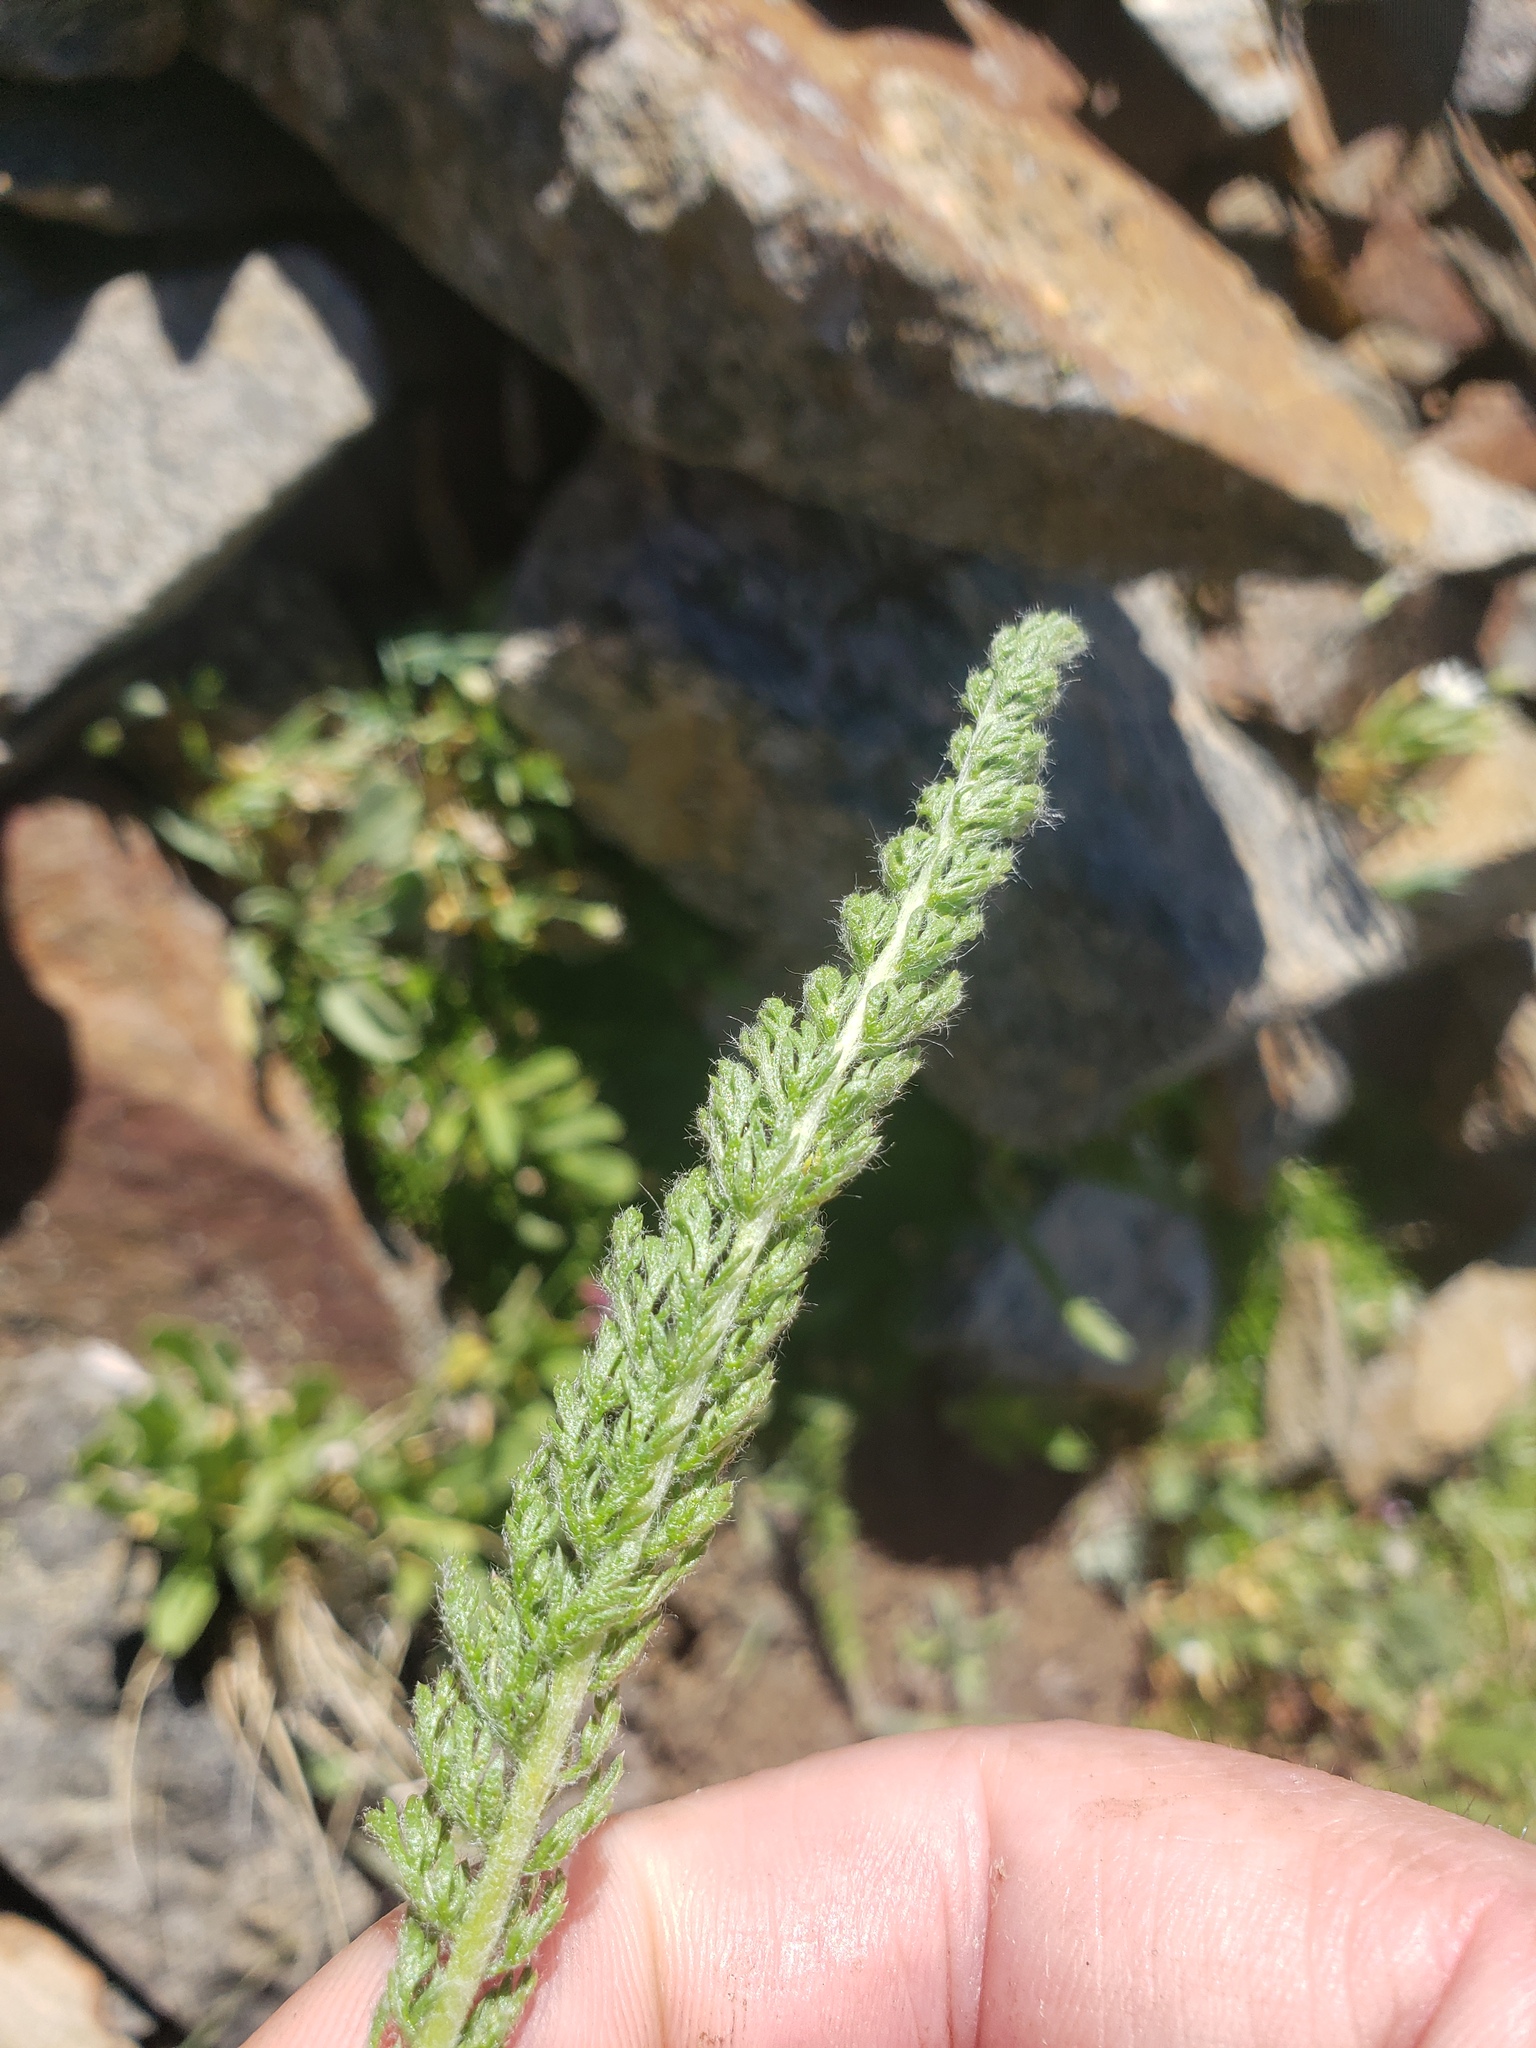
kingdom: Plantae
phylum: Tracheophyta
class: Magnoliopsida
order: Asterales
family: Asteraceae
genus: Achillea
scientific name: Achillea millefolium
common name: Yarrow
